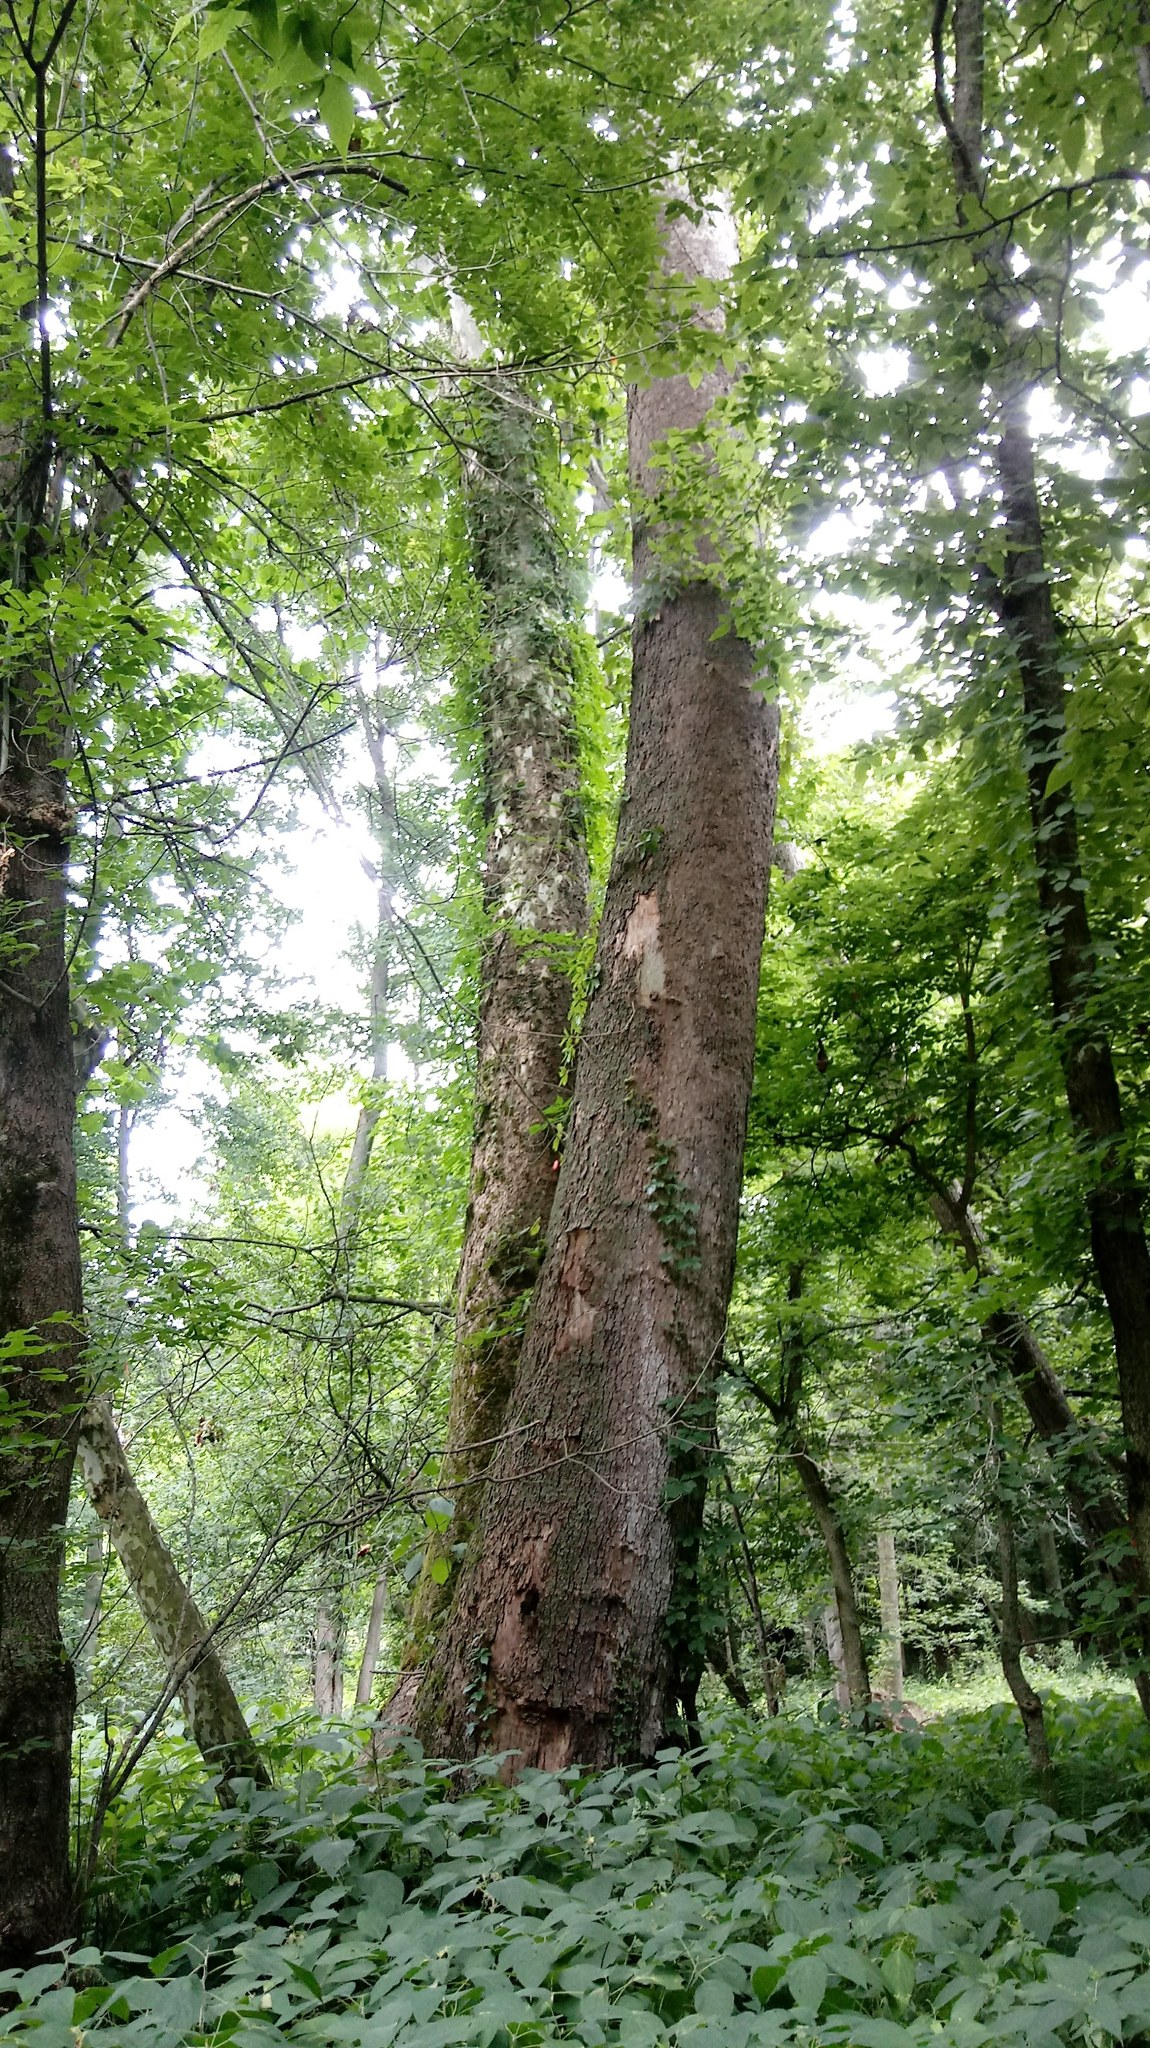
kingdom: Plantae
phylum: Tracheophyta
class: Magnoliopsida
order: Proteales
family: Platanaceae
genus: Platanus
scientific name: Platanus occidentalis
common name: American sycamore
